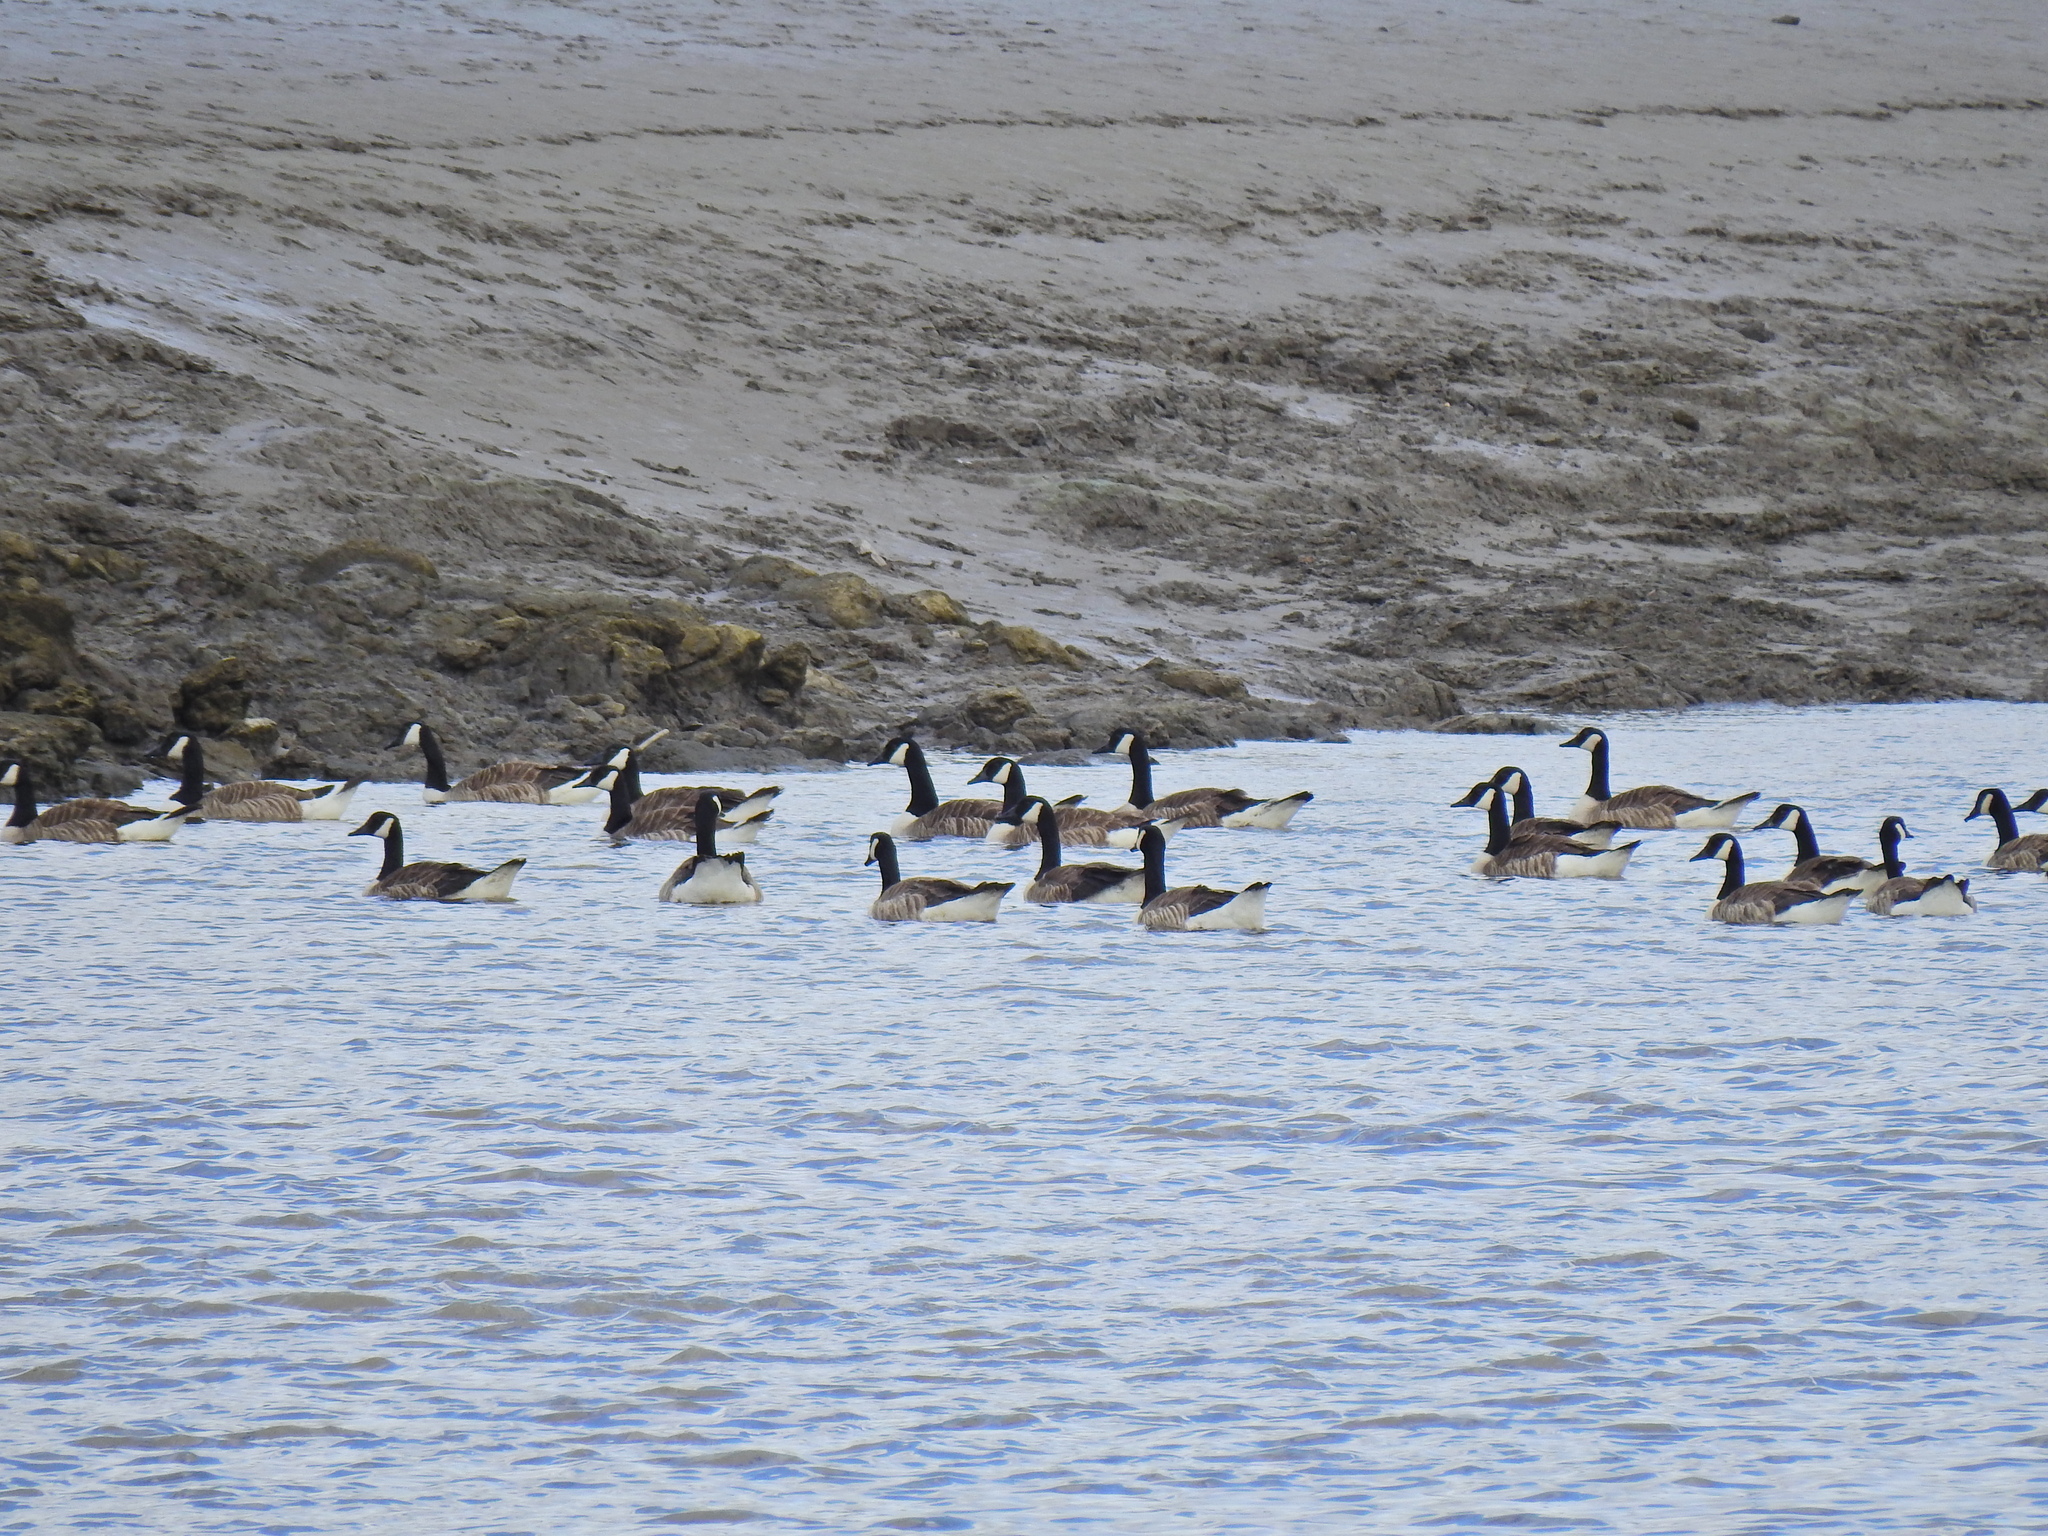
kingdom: Animalia
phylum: Chordata
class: Aves
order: Anseriformes
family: Anatidae
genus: Branta
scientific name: Branta canadensis
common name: Canada goose
